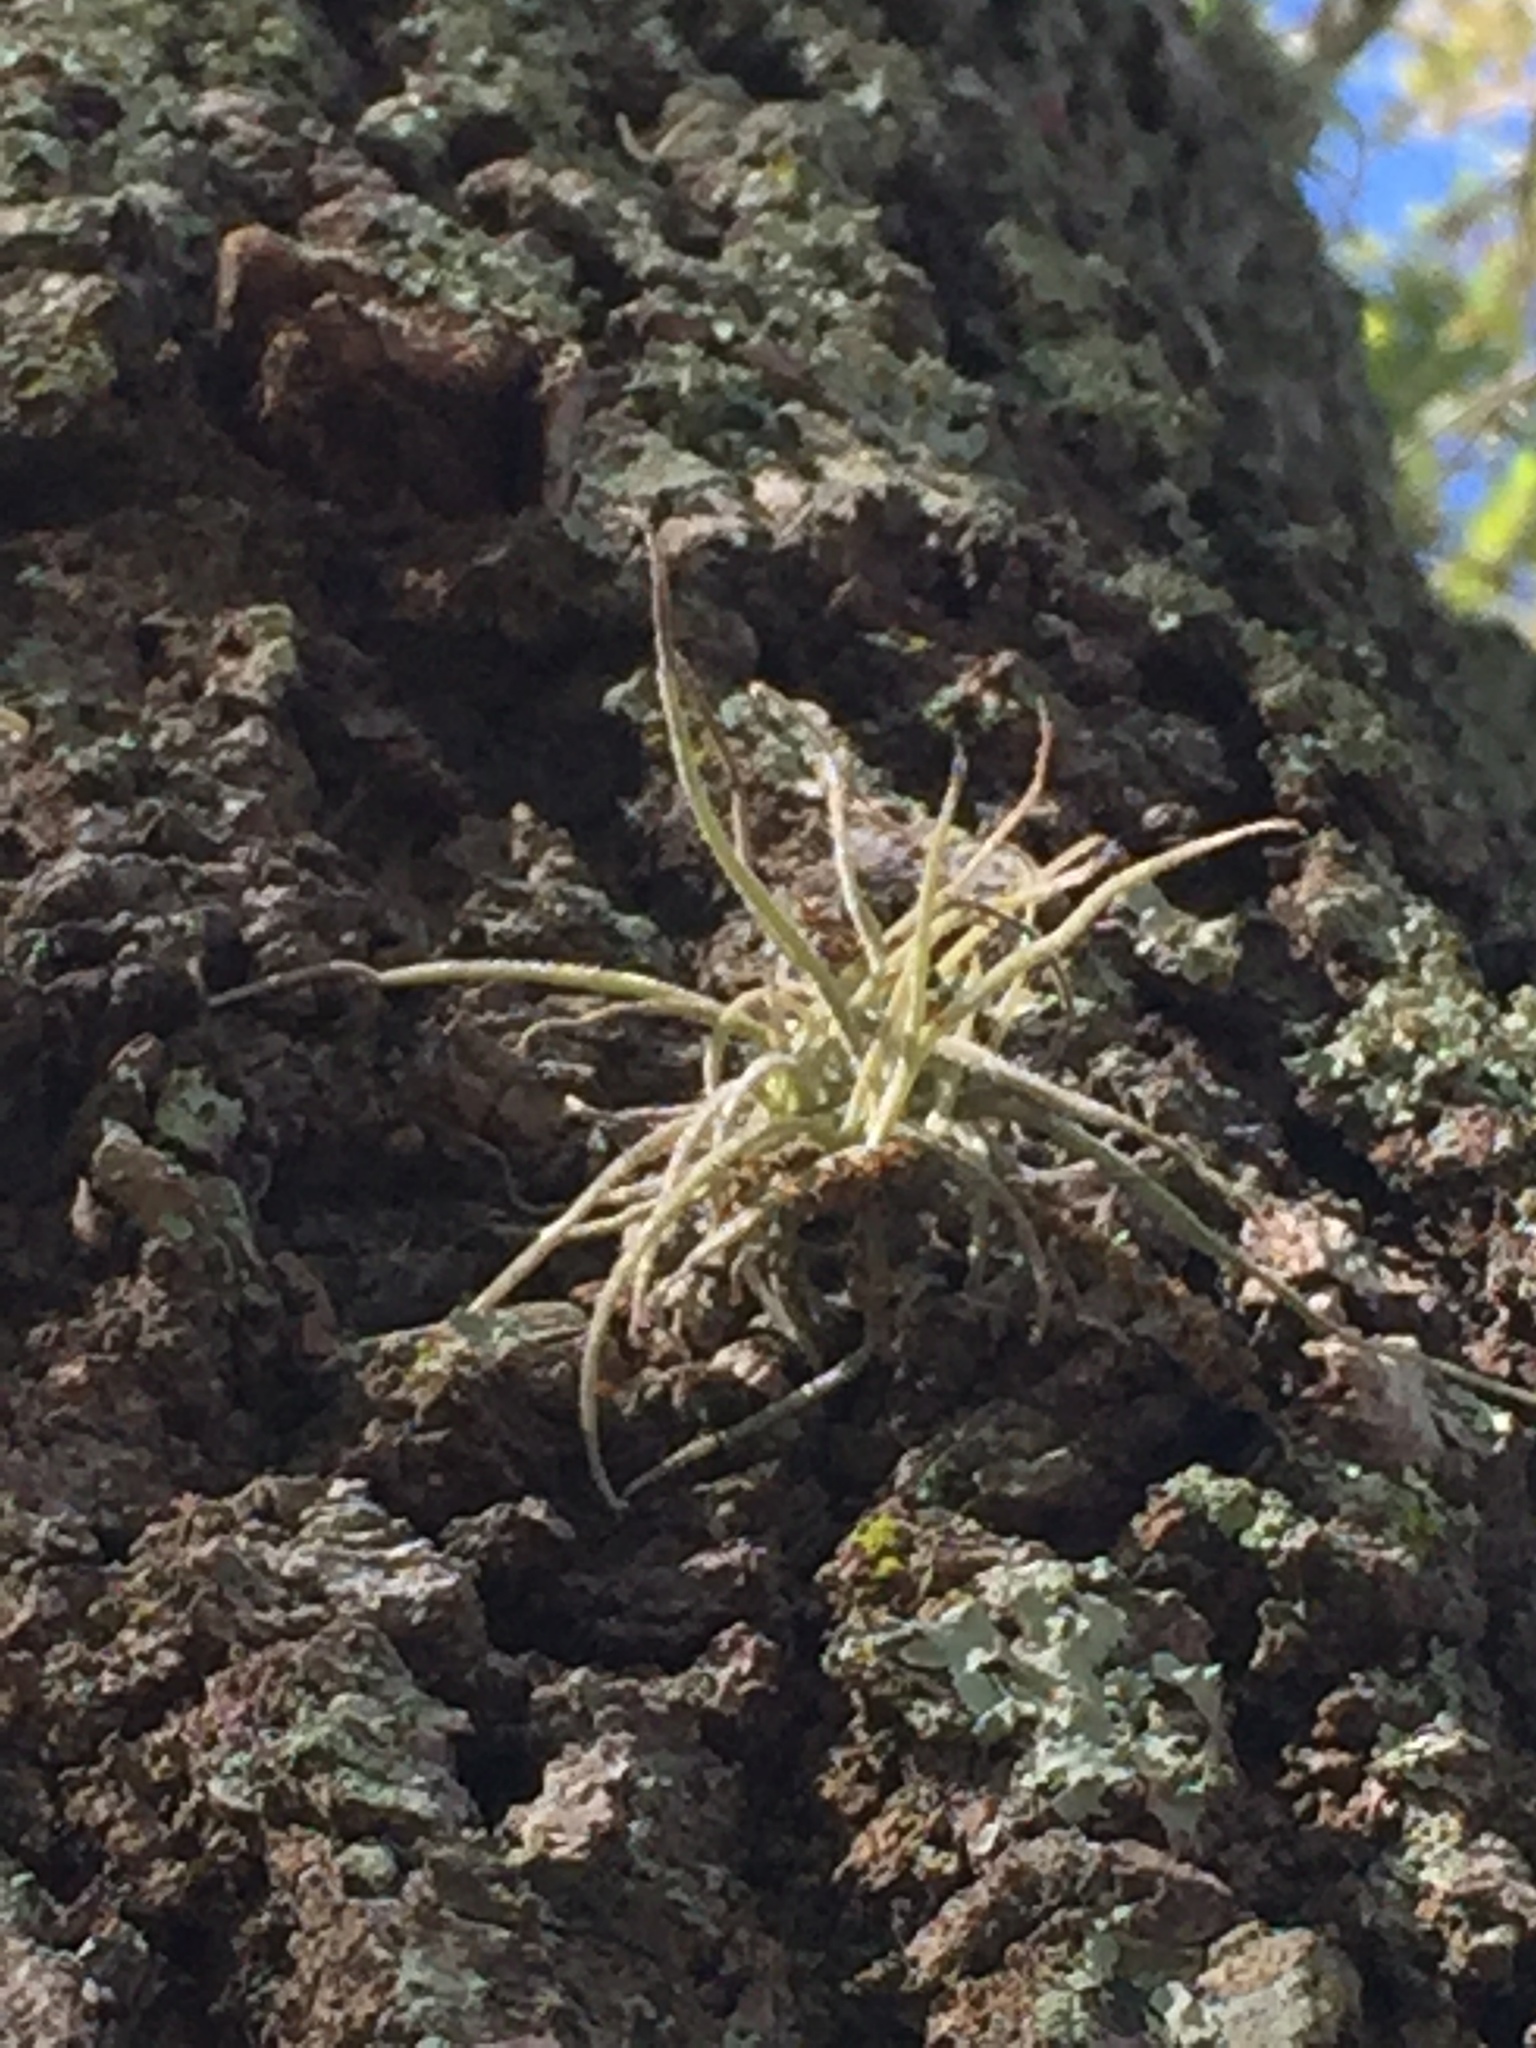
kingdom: Plantae
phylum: Tracheophyta
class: Liliopsida
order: Poales
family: Bromeliaceae
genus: Tillandsia
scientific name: Tillandsia recurvata
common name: Small ballmoss
